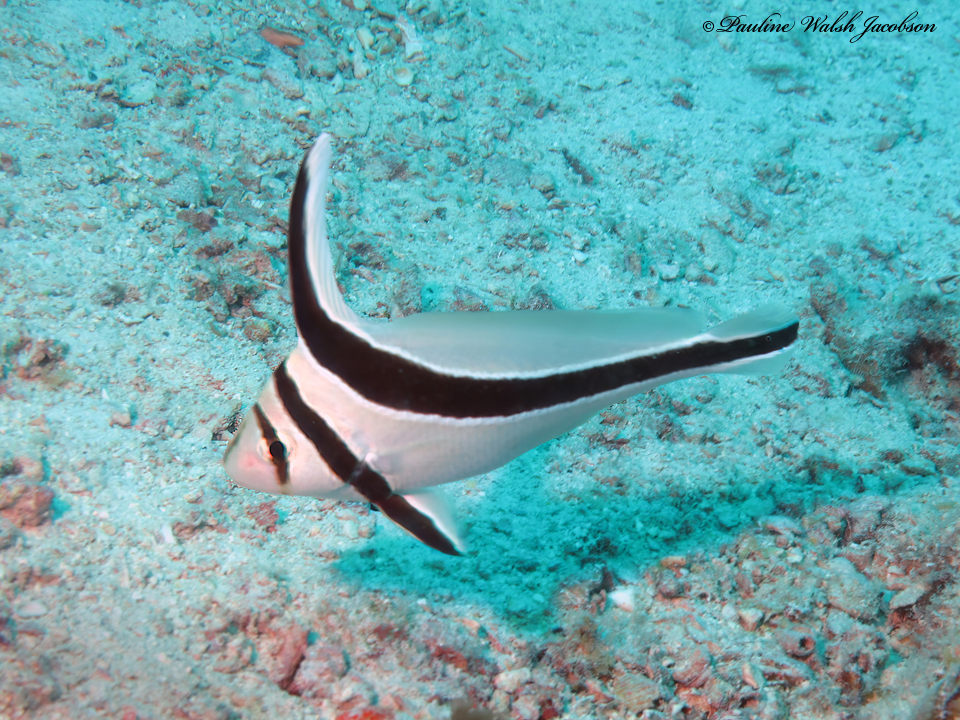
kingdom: Animalia
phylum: Chordata
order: Perciformes
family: Sciaenidae
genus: Equetus
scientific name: Equetus lanceolatus
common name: Jackknife fish
